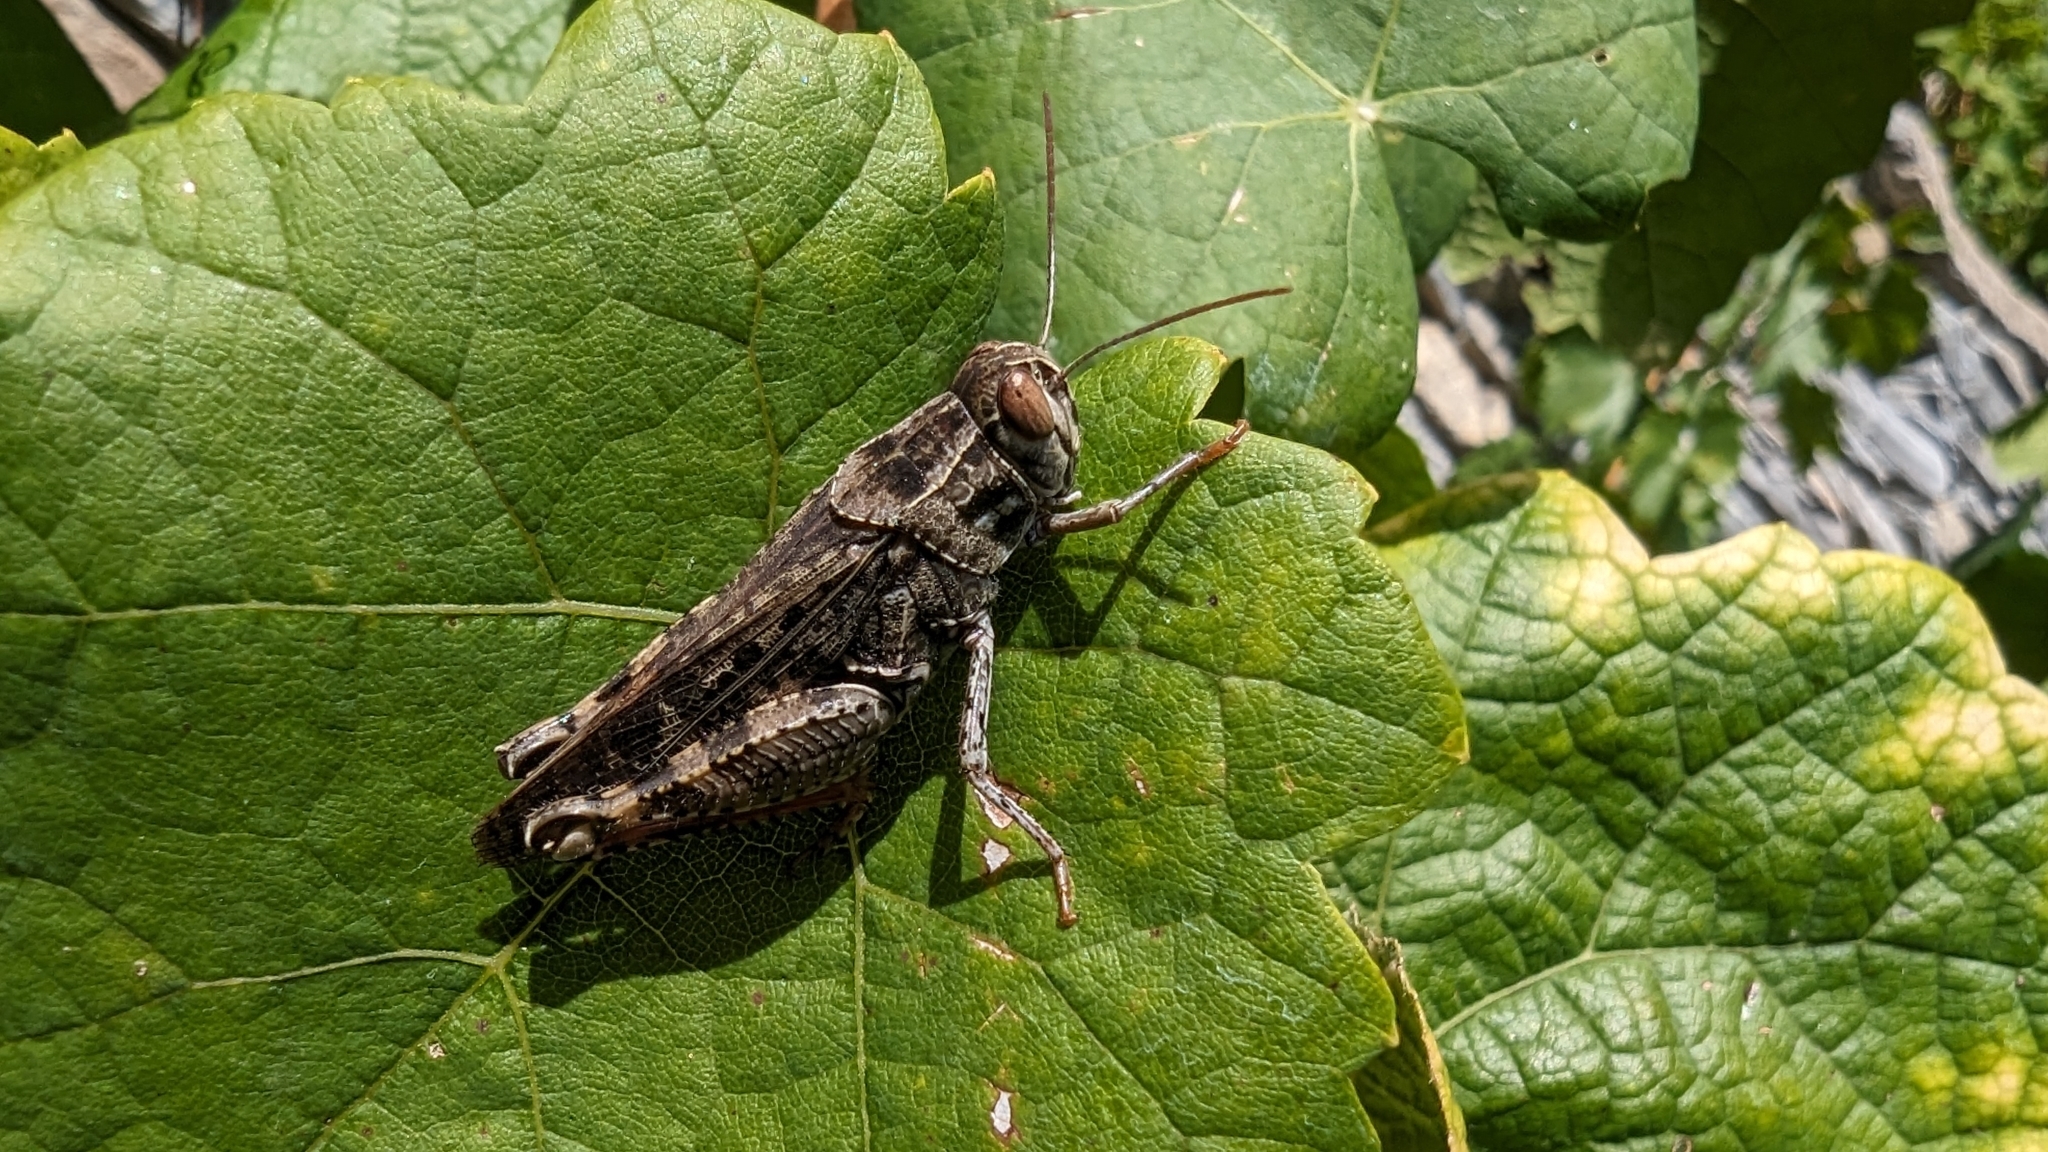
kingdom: Animalia
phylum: Arthropoda
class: Insecta
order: Orthoptera
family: Acrididae
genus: Calliptamus
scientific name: Calliptamus italicus
